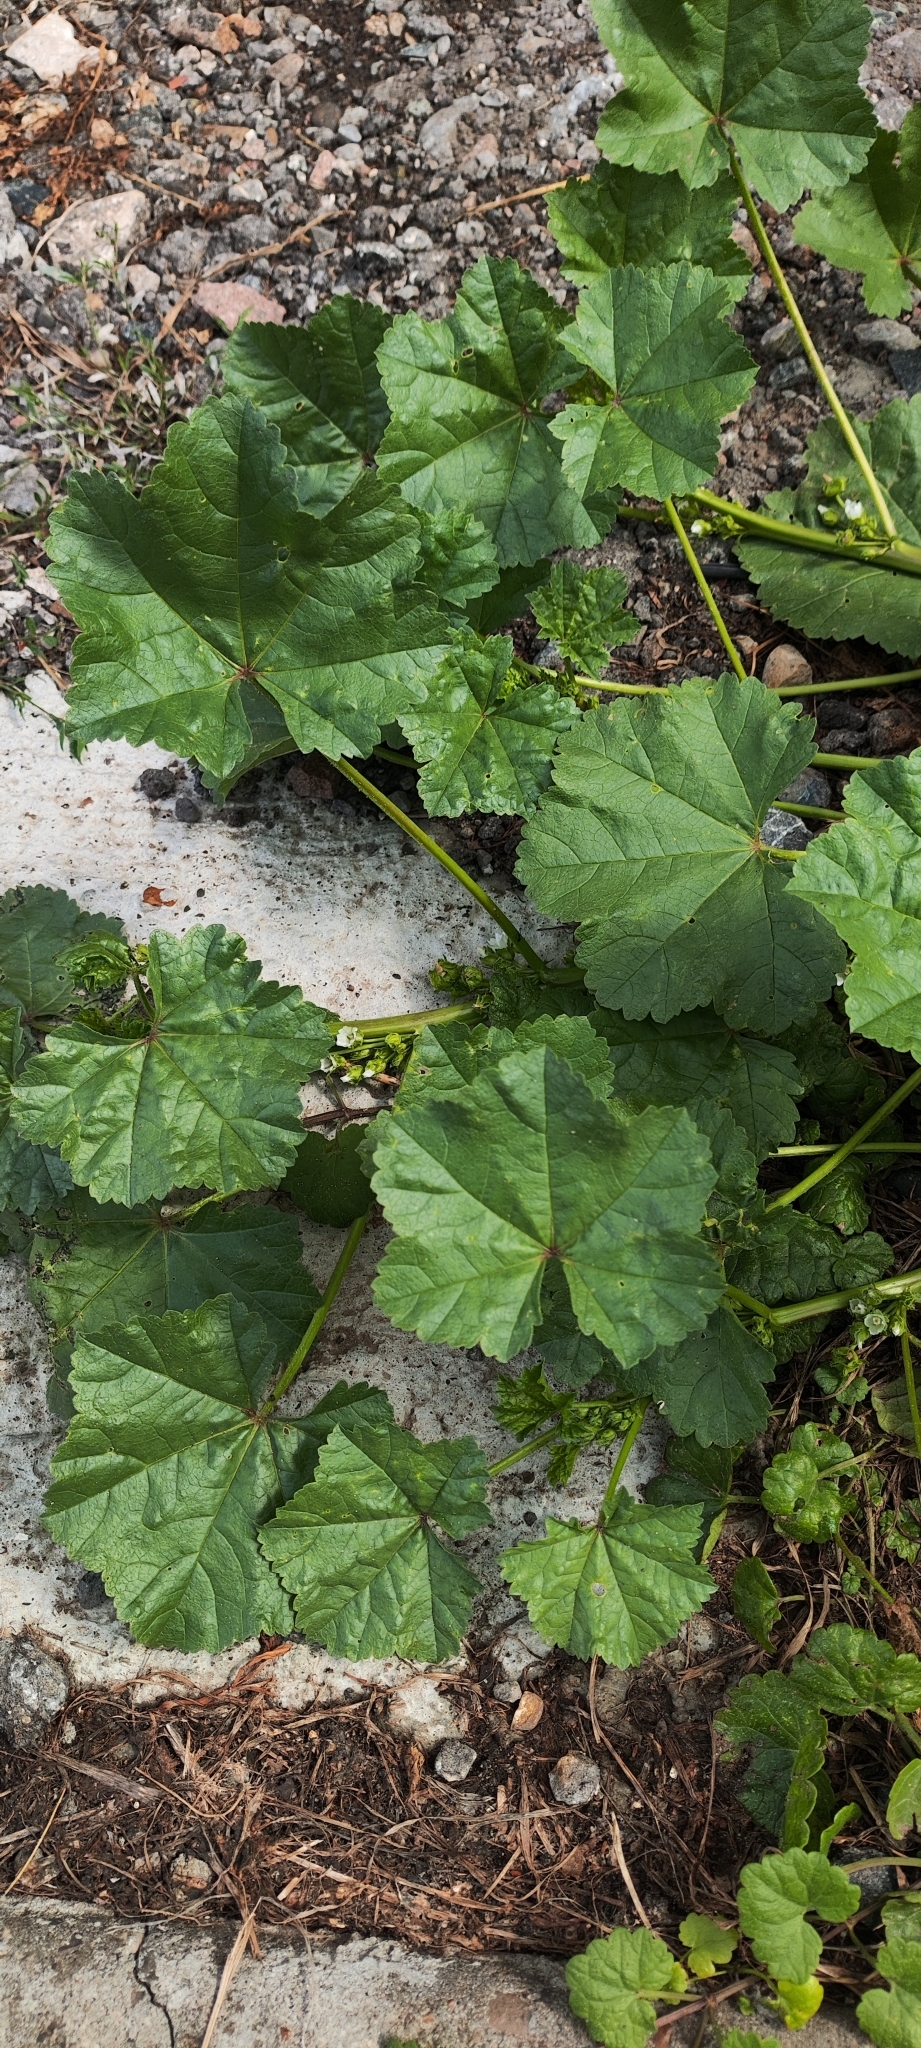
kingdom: Plantae
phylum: Tracheophyta
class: Magnoliopsida
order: Malvales
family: Malvaceae
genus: Malva
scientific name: Malva pusilla
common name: Small mallow
